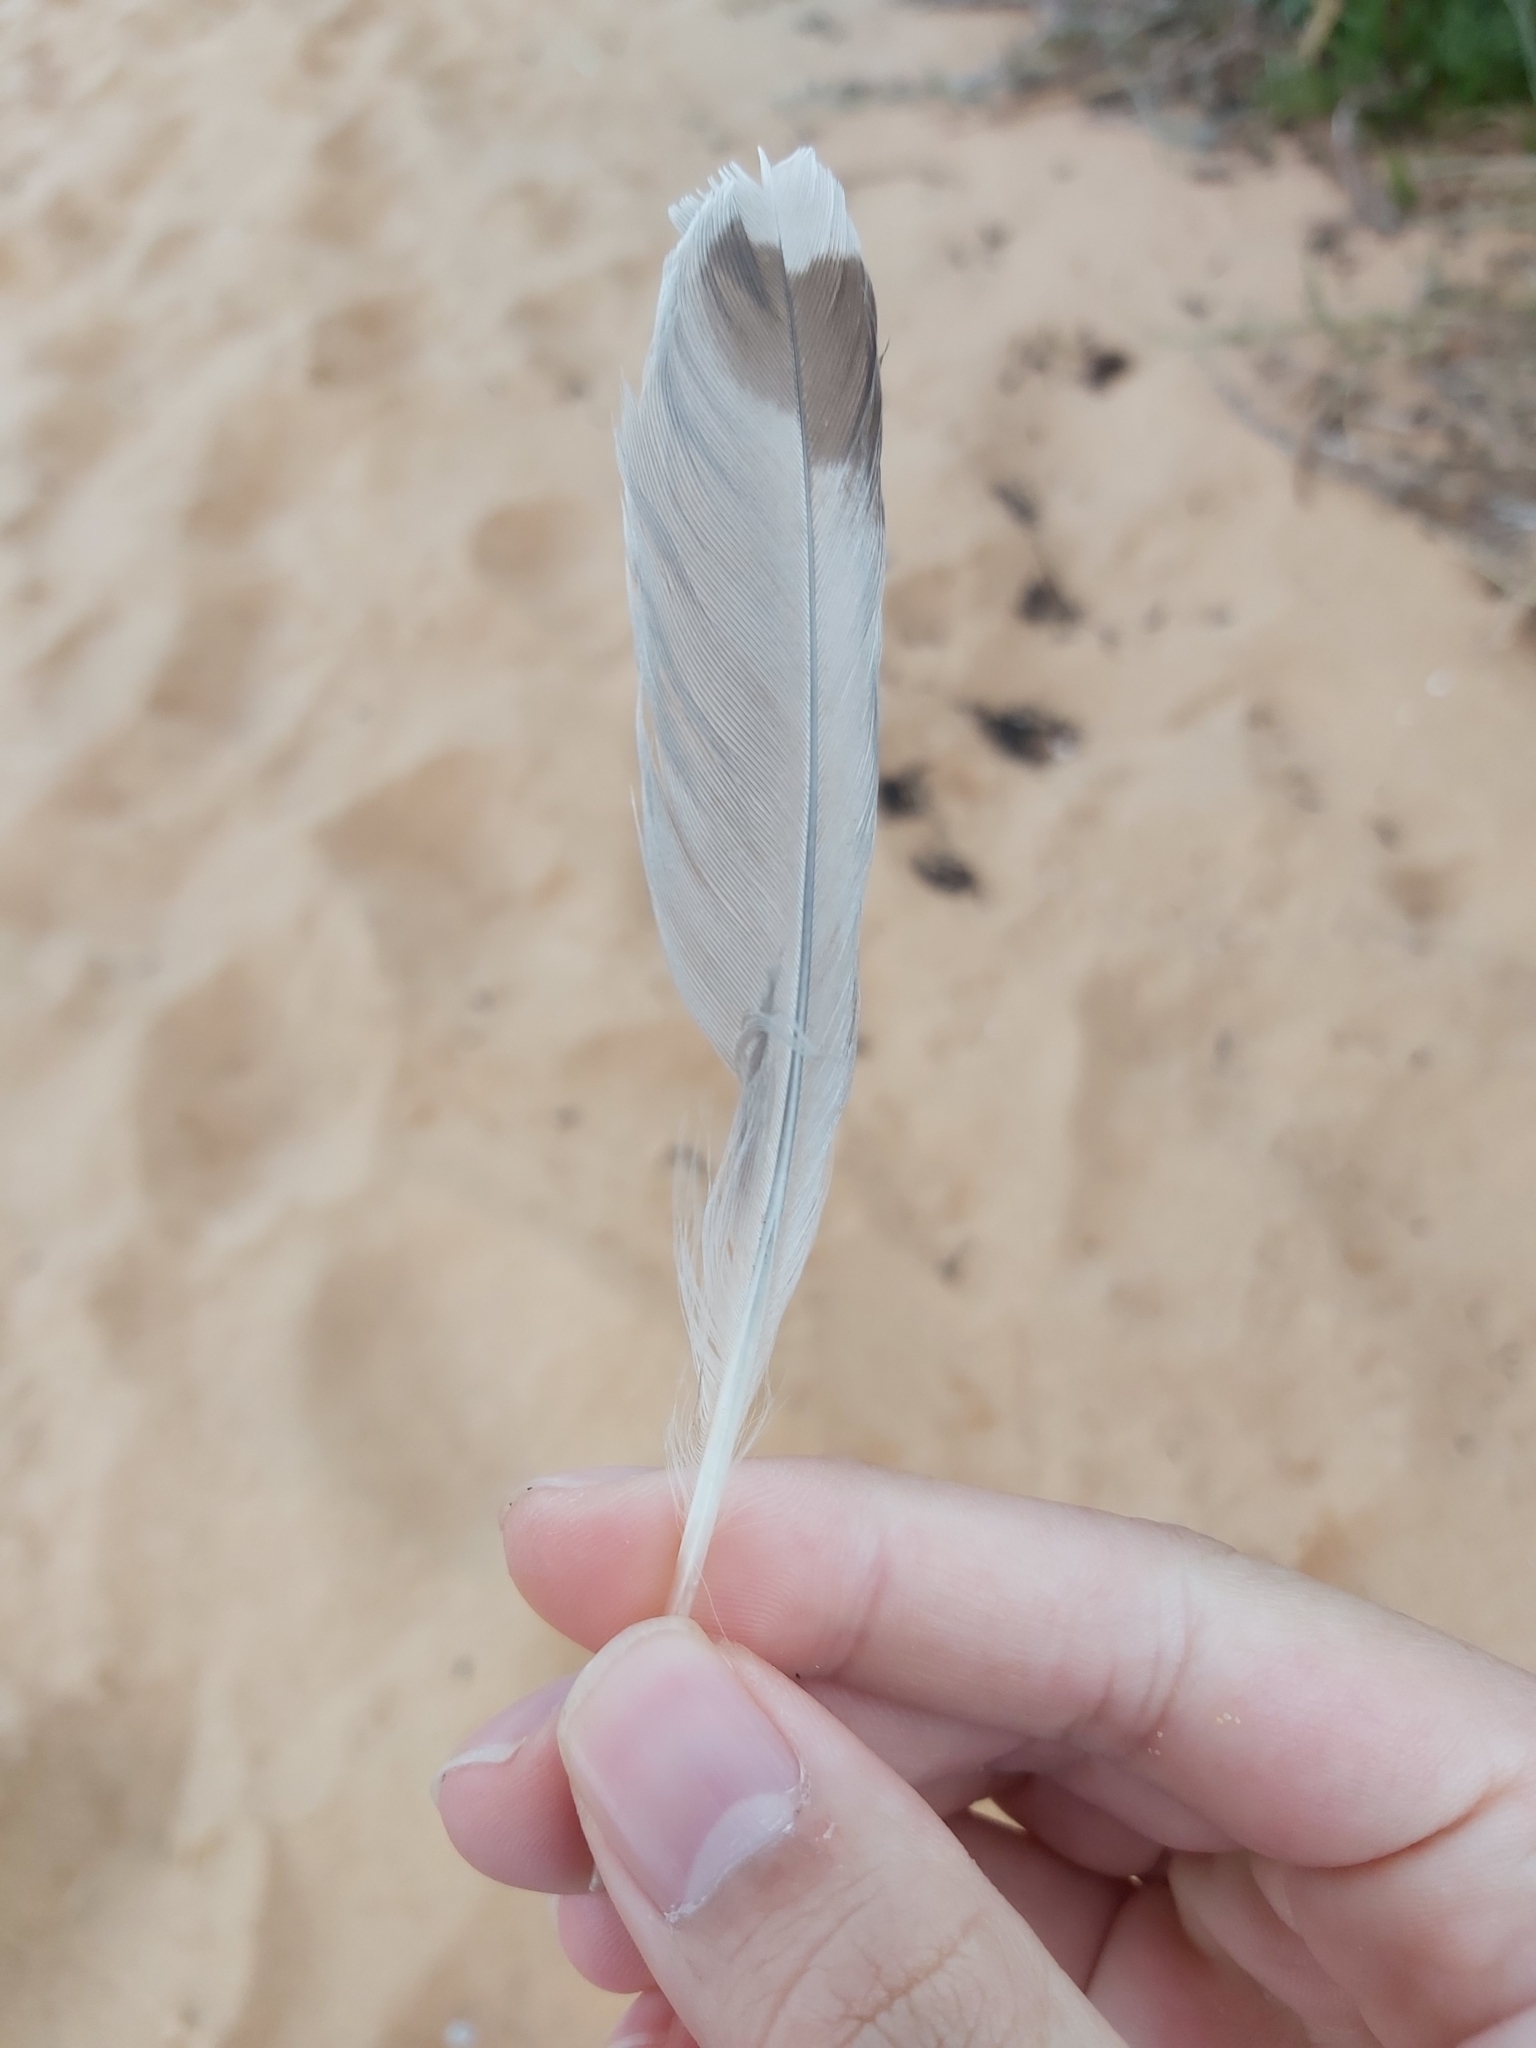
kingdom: Animalia
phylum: Chordata
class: Aves
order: Charadriiformes
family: Laridae
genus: Chroicocephalus
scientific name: Chroicocephalus novaehollandiae
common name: Silver gull
